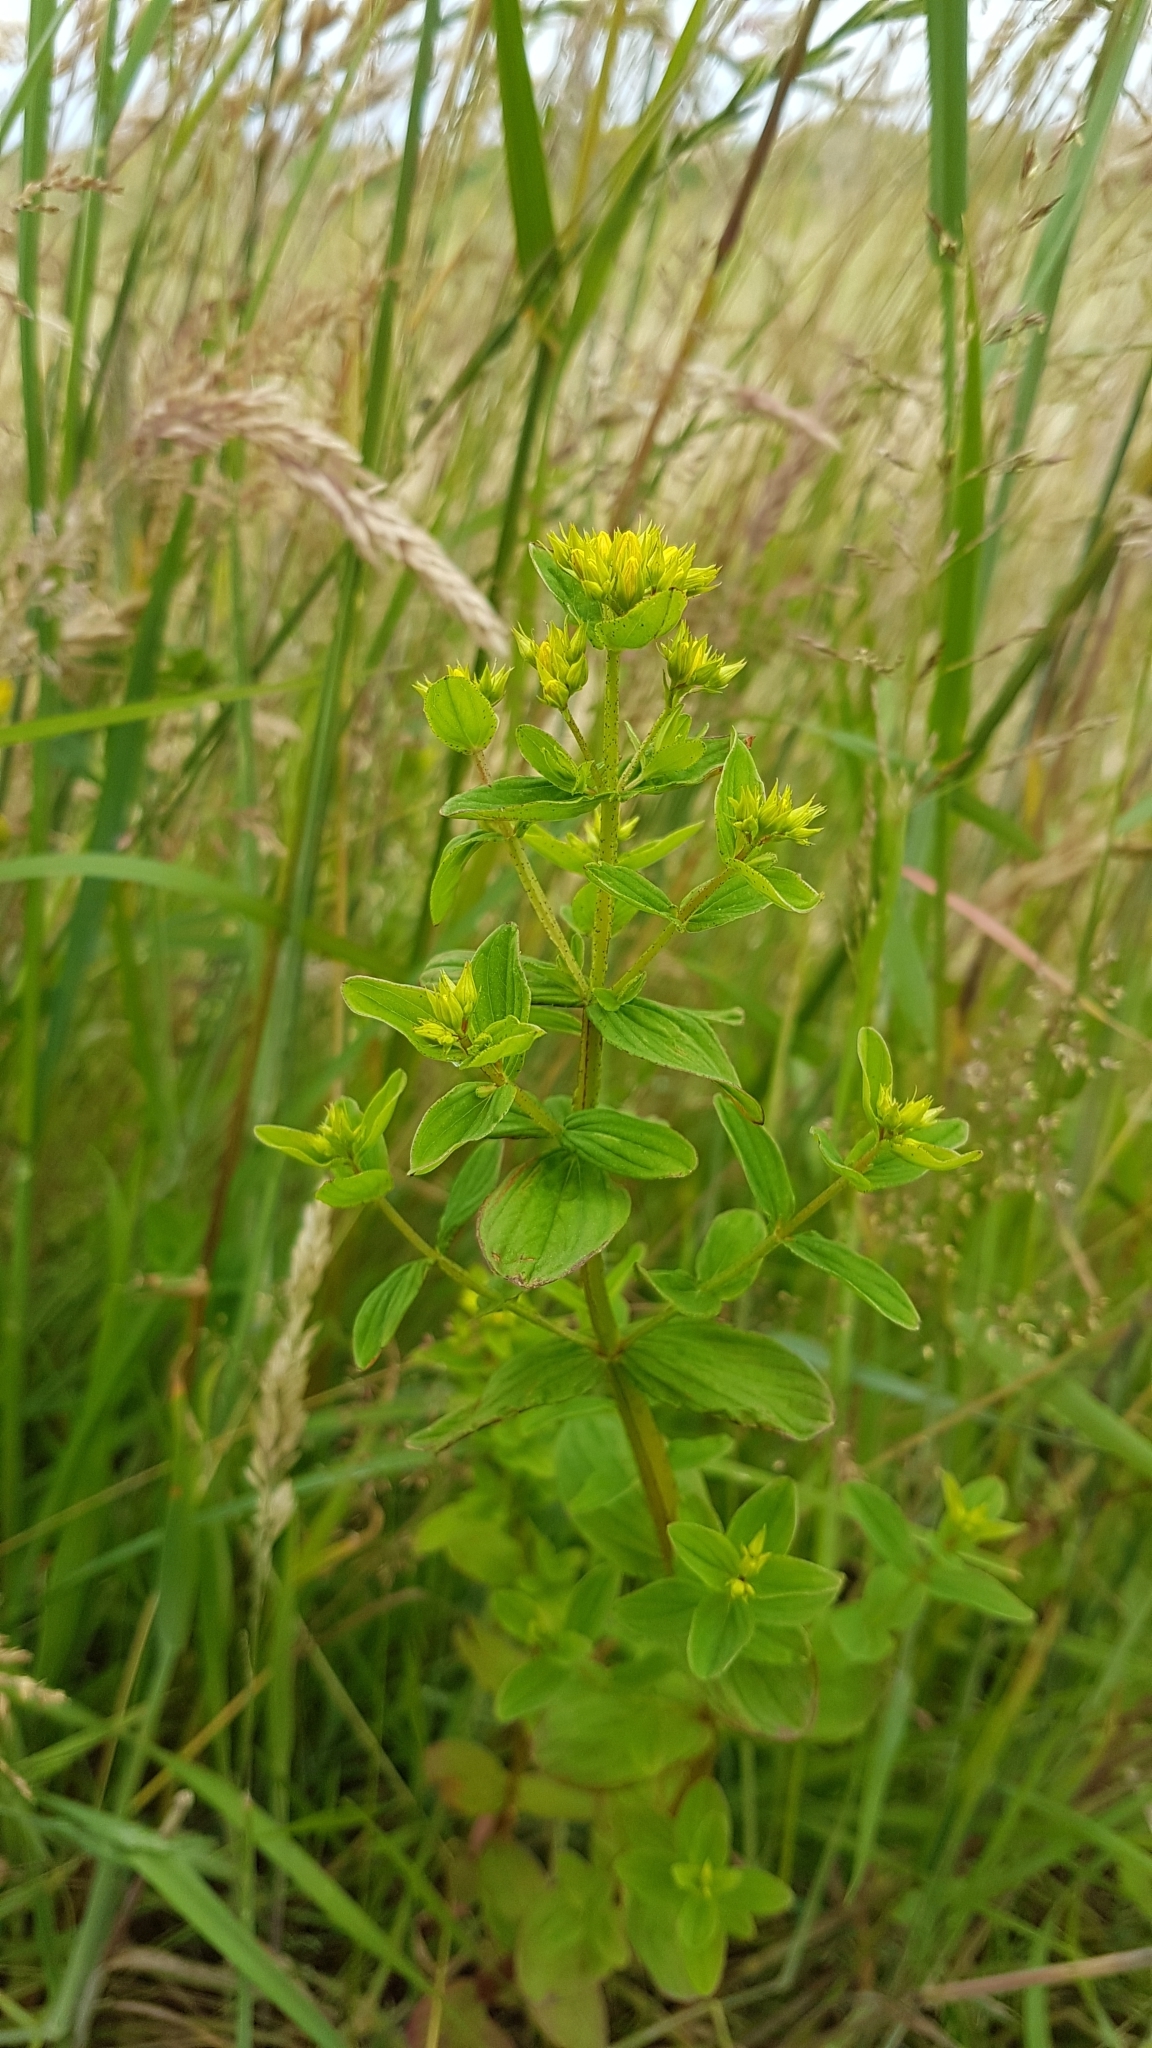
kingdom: Plantae
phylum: Tracheophyta
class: Magnoliopsida
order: Malpighiales
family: Hypericaceae
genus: Hypericum
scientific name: Hypericum tetrapterum
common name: Square-stalked st. john's-wort
